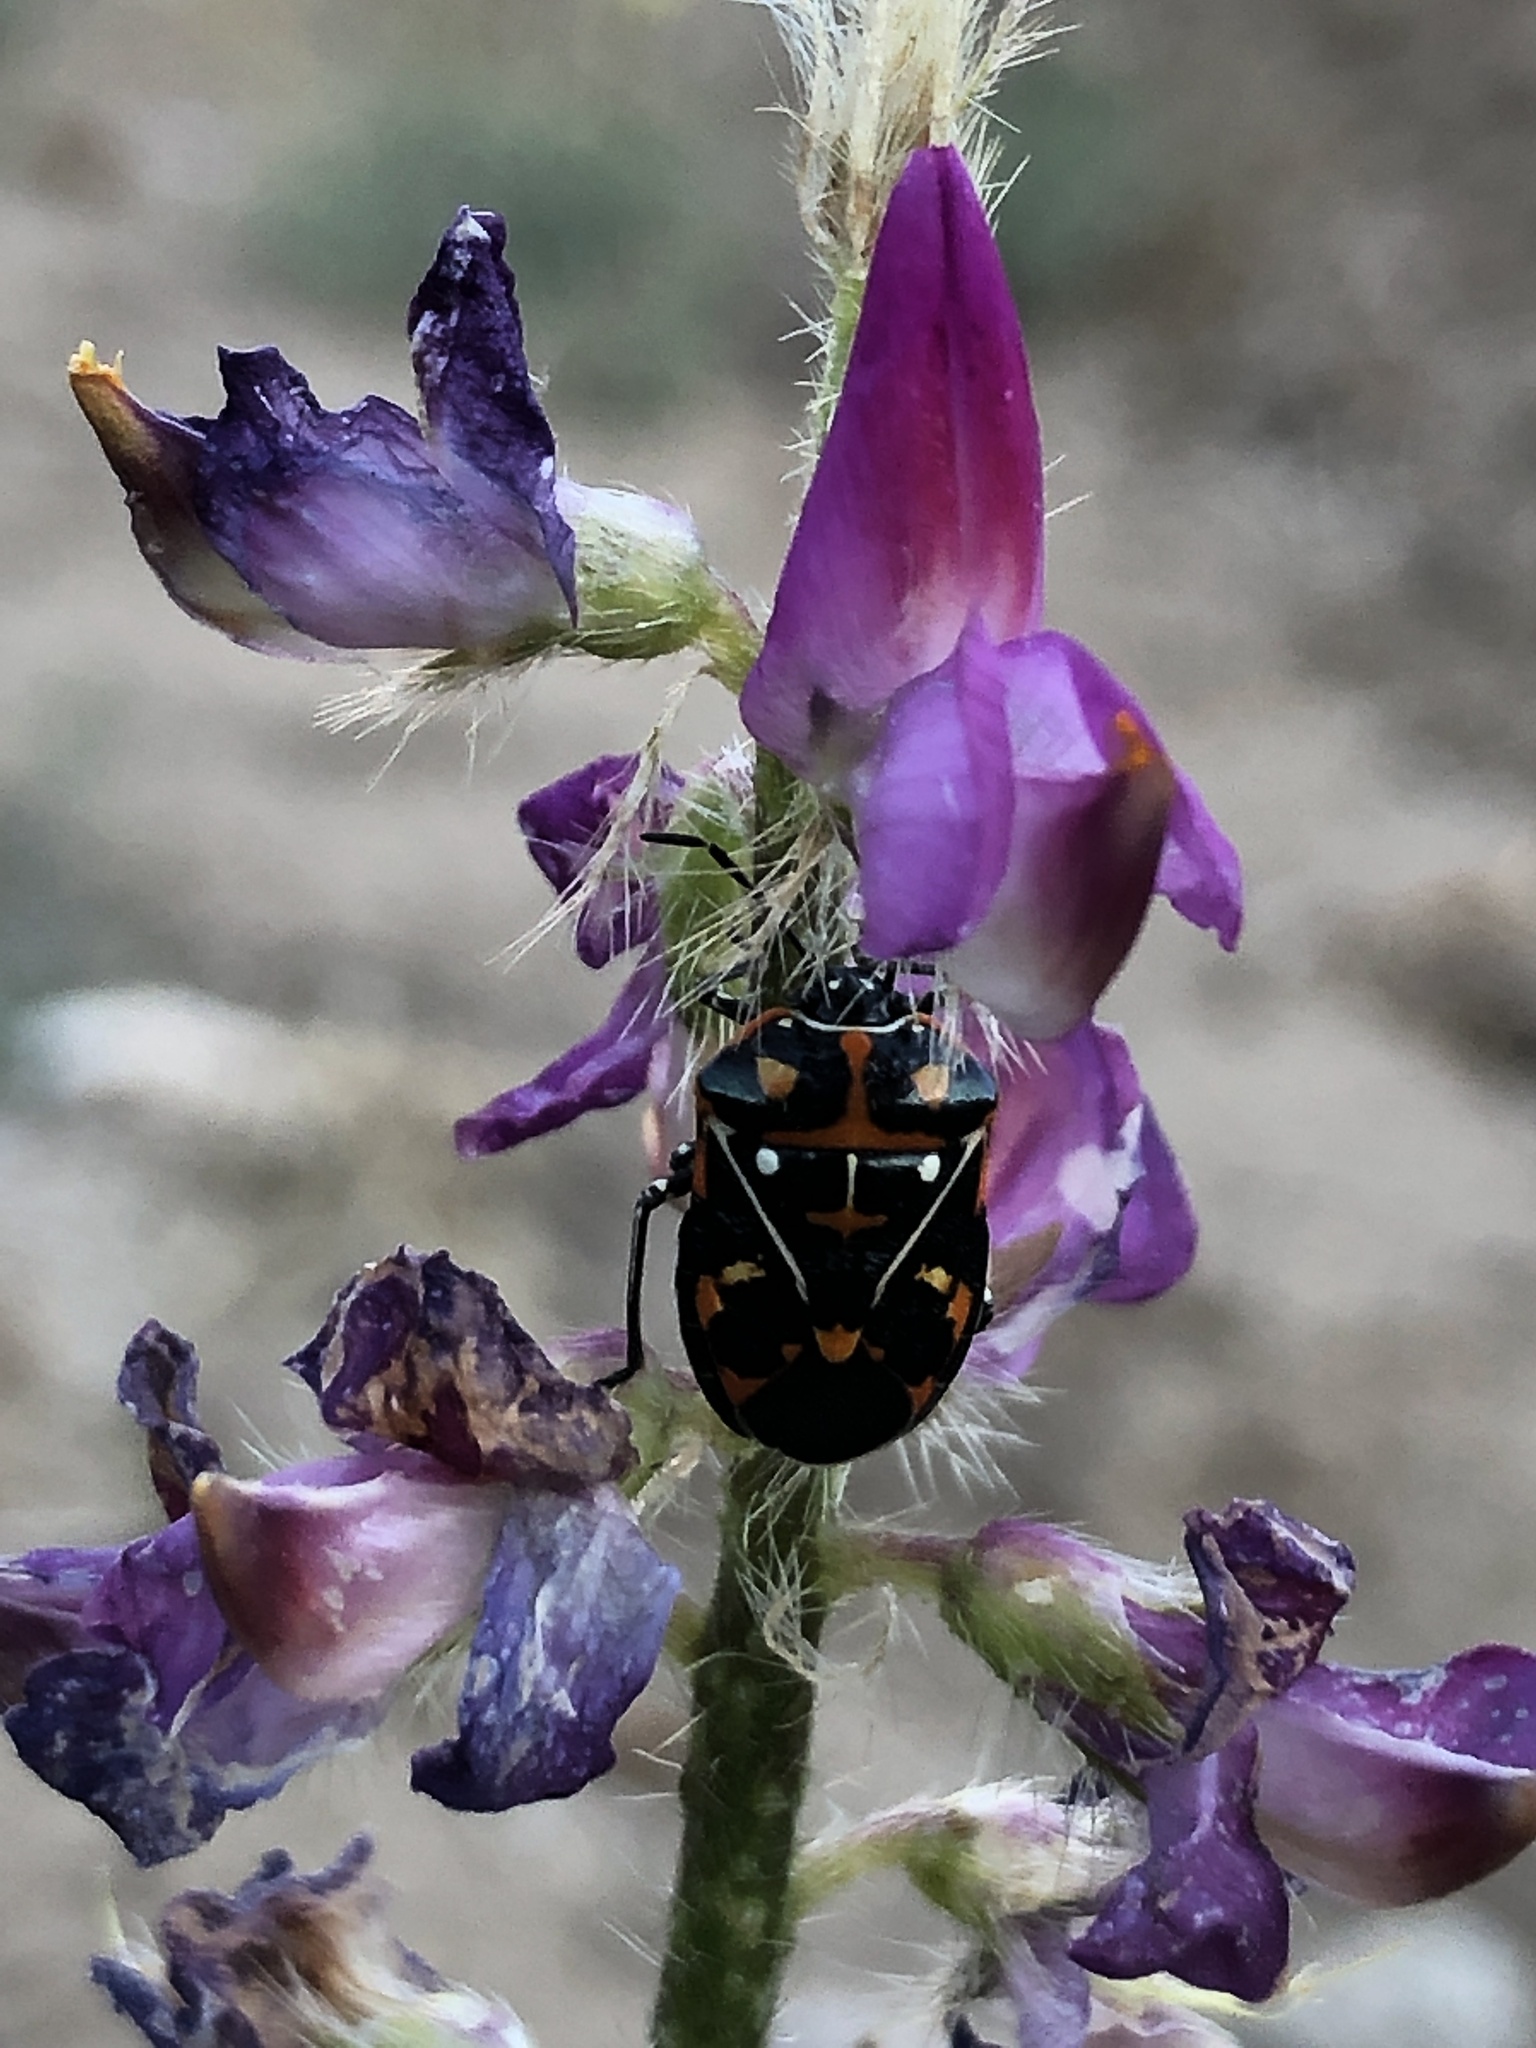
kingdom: Animalia
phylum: Arthropoda
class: Insecta
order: Hemiptera
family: Pentatomidae
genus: Murgantia
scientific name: Murgantia histrionica
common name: Harlequin bug
